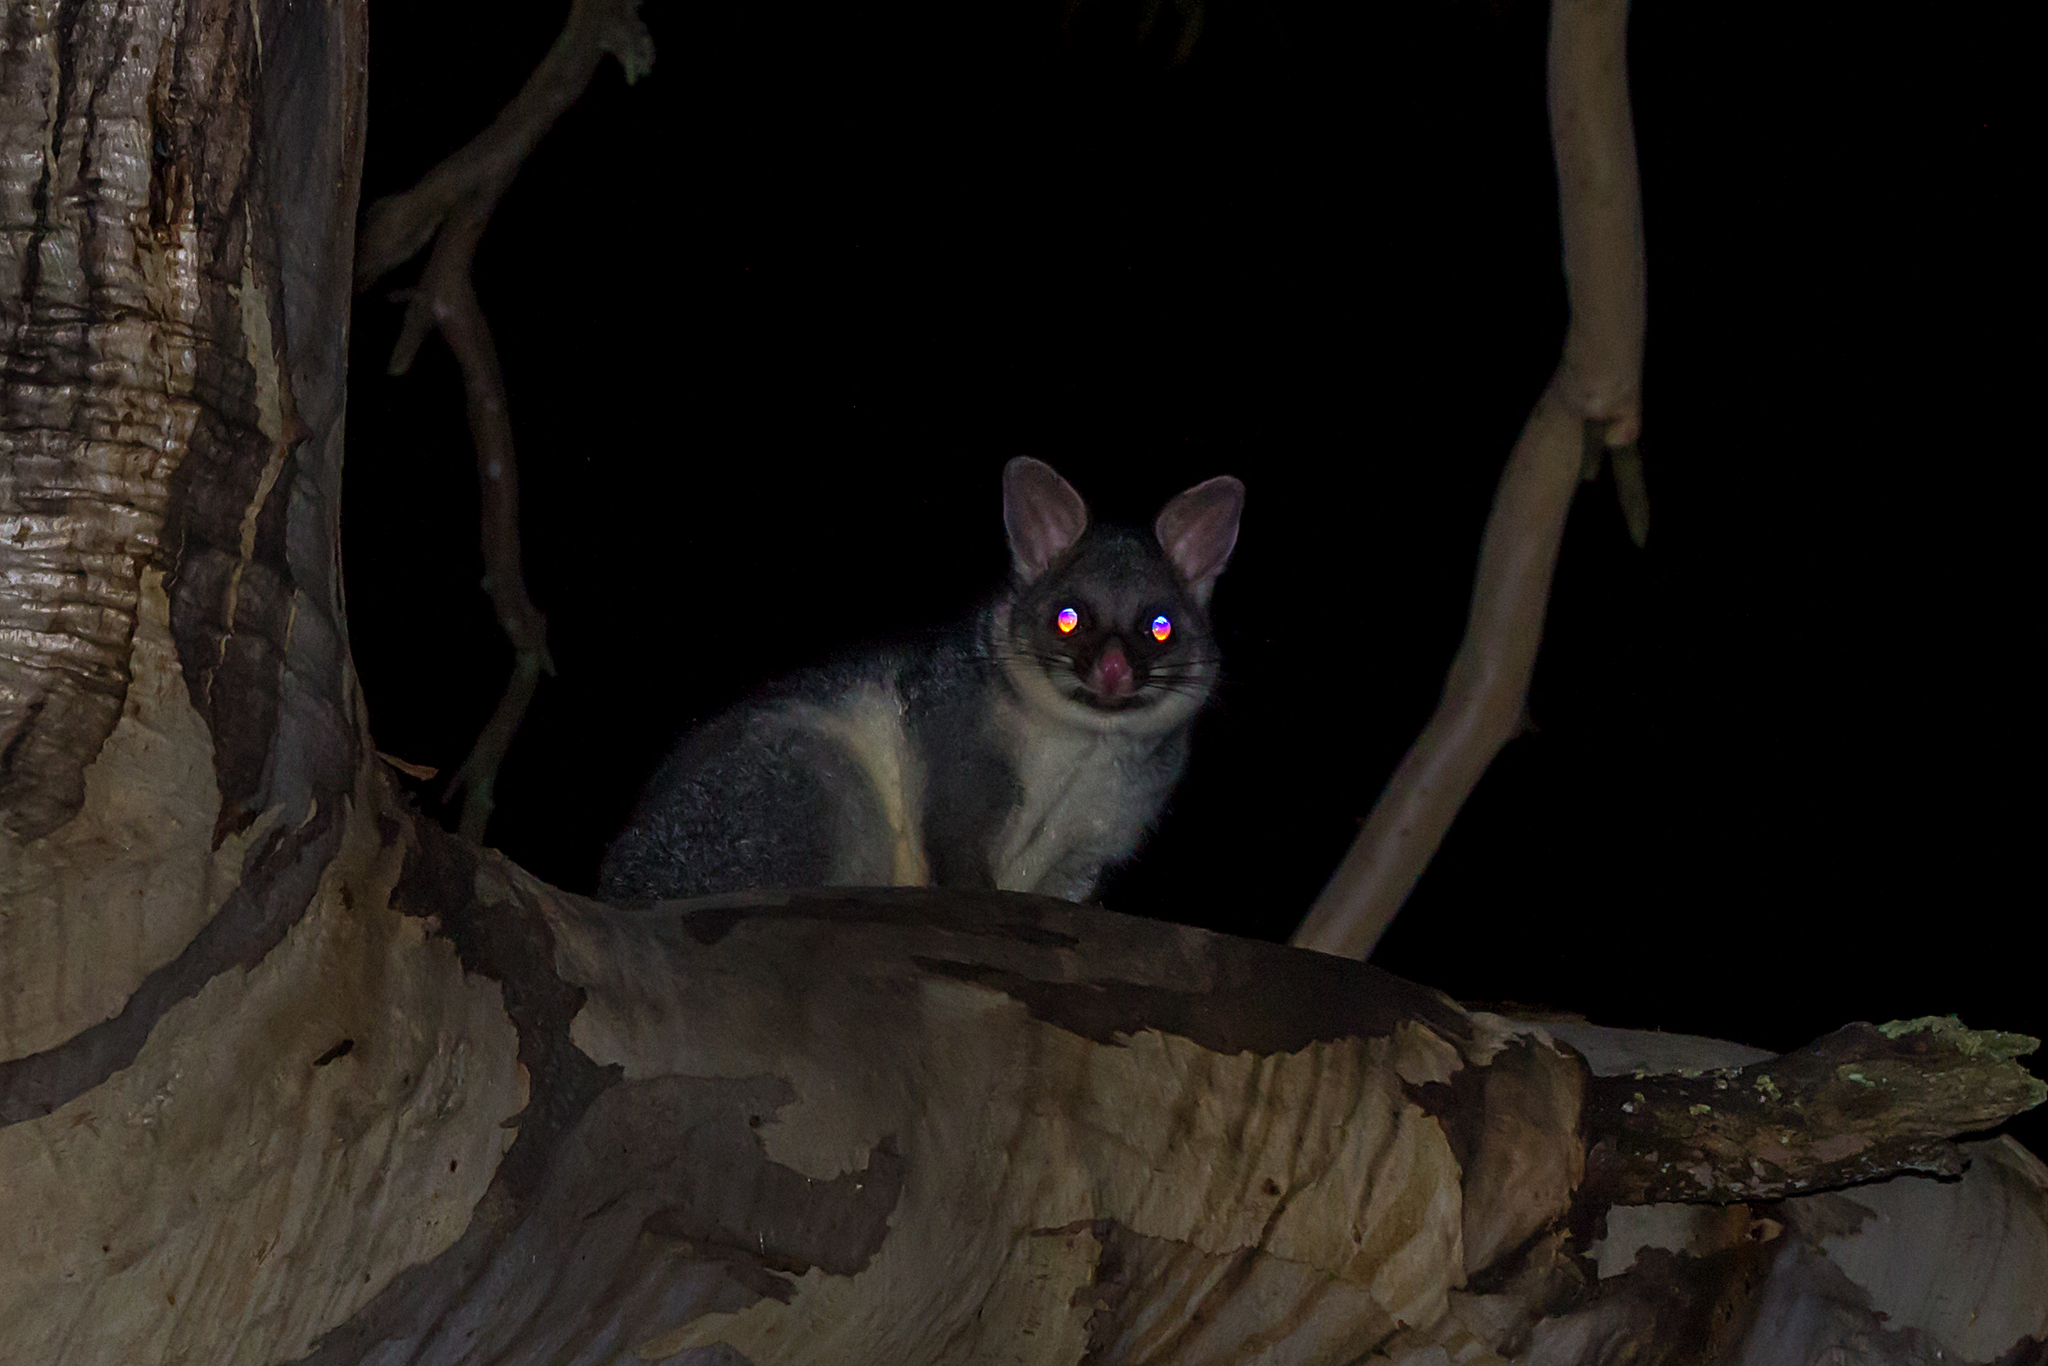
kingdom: Animalia
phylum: Chordata
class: Mammalia
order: Diprotodontia
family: Phalangeridae
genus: Trichosurus
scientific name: Trichosurus vulpecula
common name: Common brushtail
